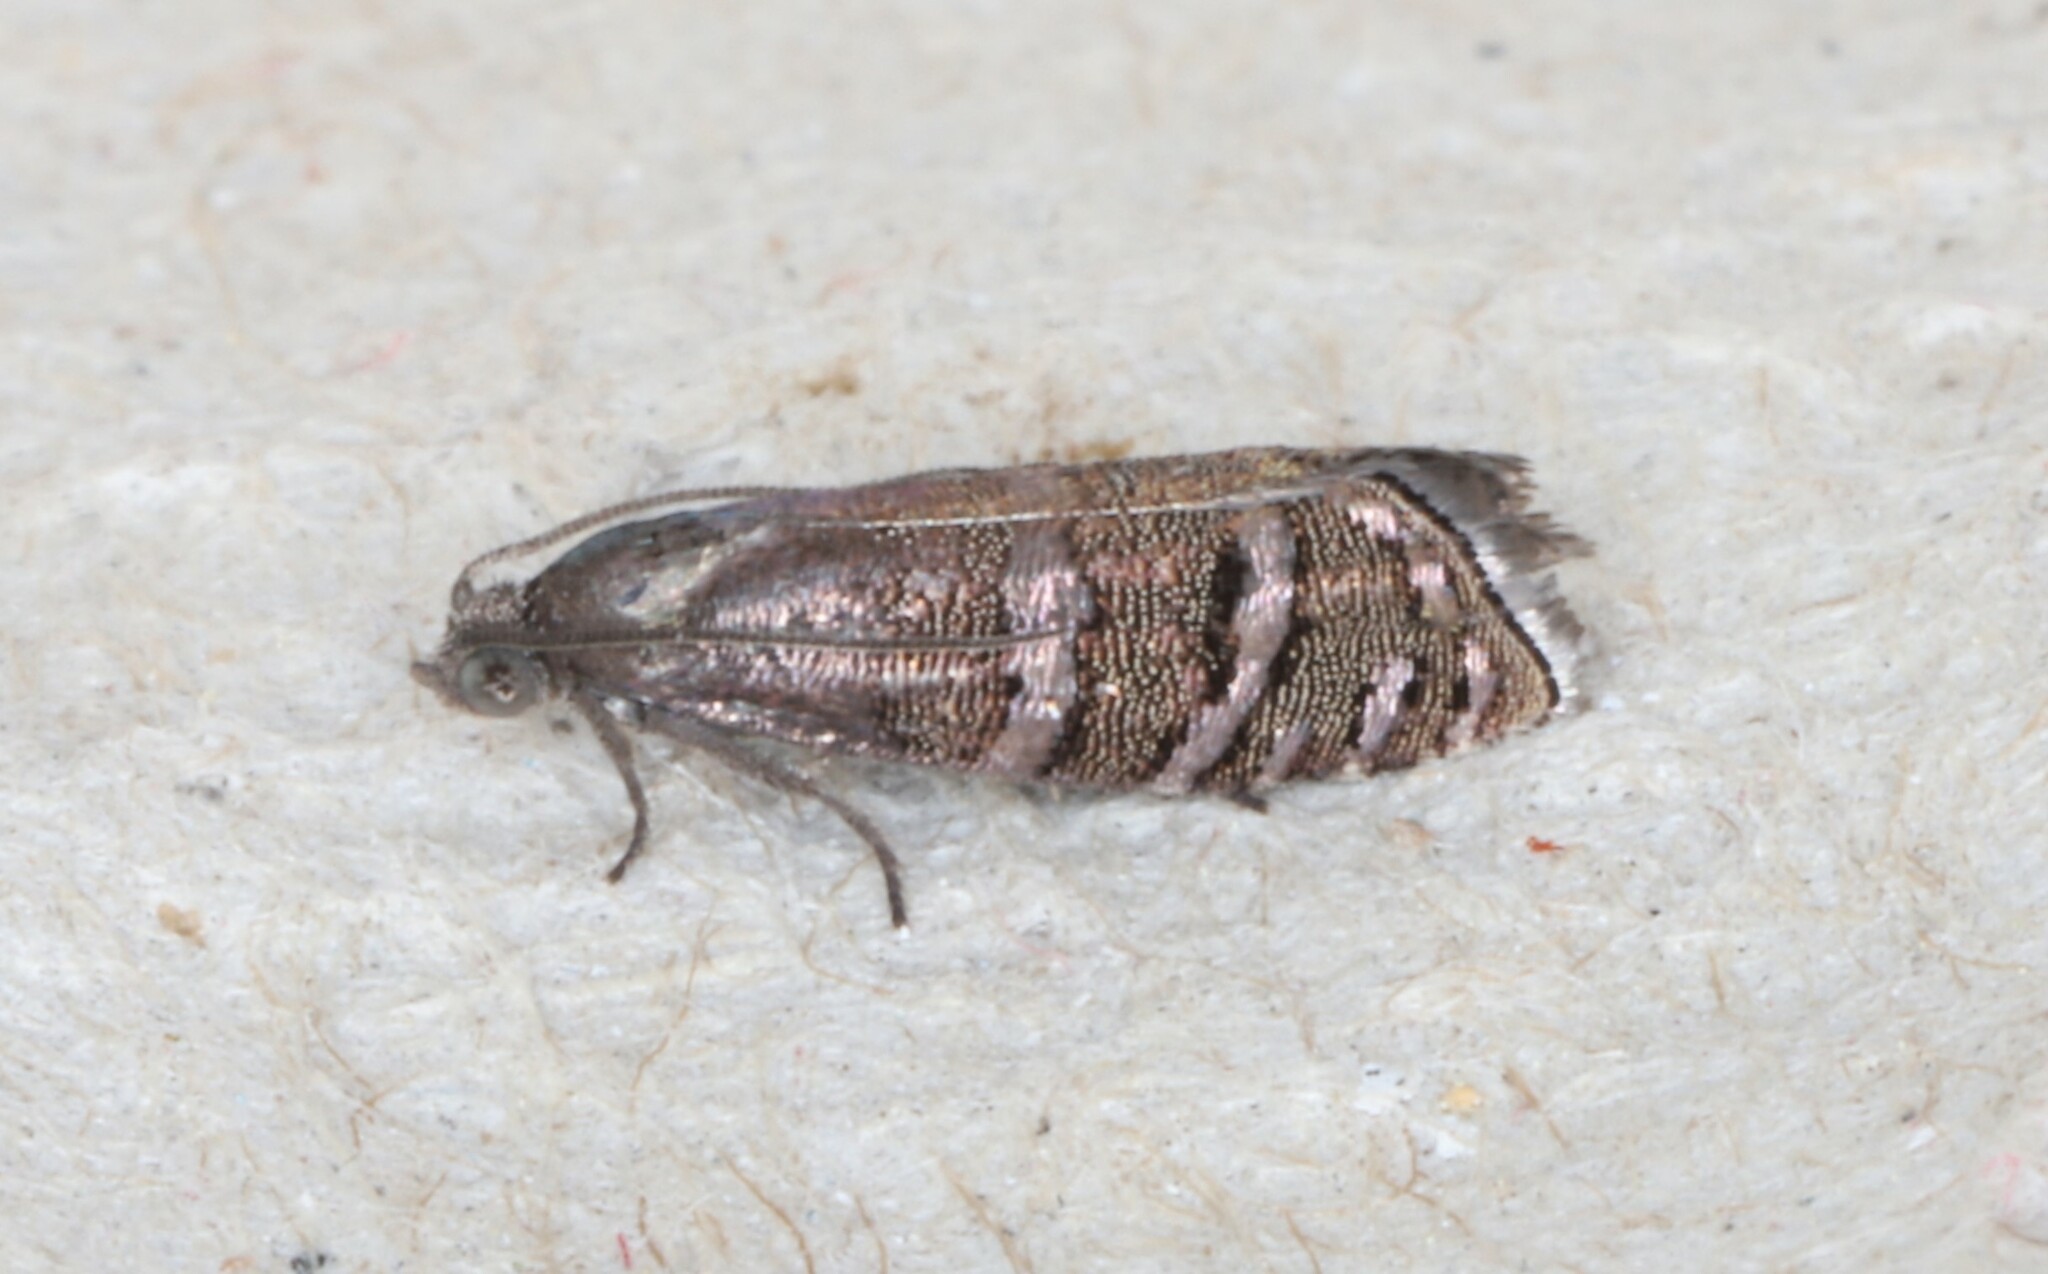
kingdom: Animalia
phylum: Arthropoda
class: Insecta
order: Lepidoptera
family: Tortricidae
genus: Cydia
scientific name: Cydia toreuta
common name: Eastern pine seedworm moth
